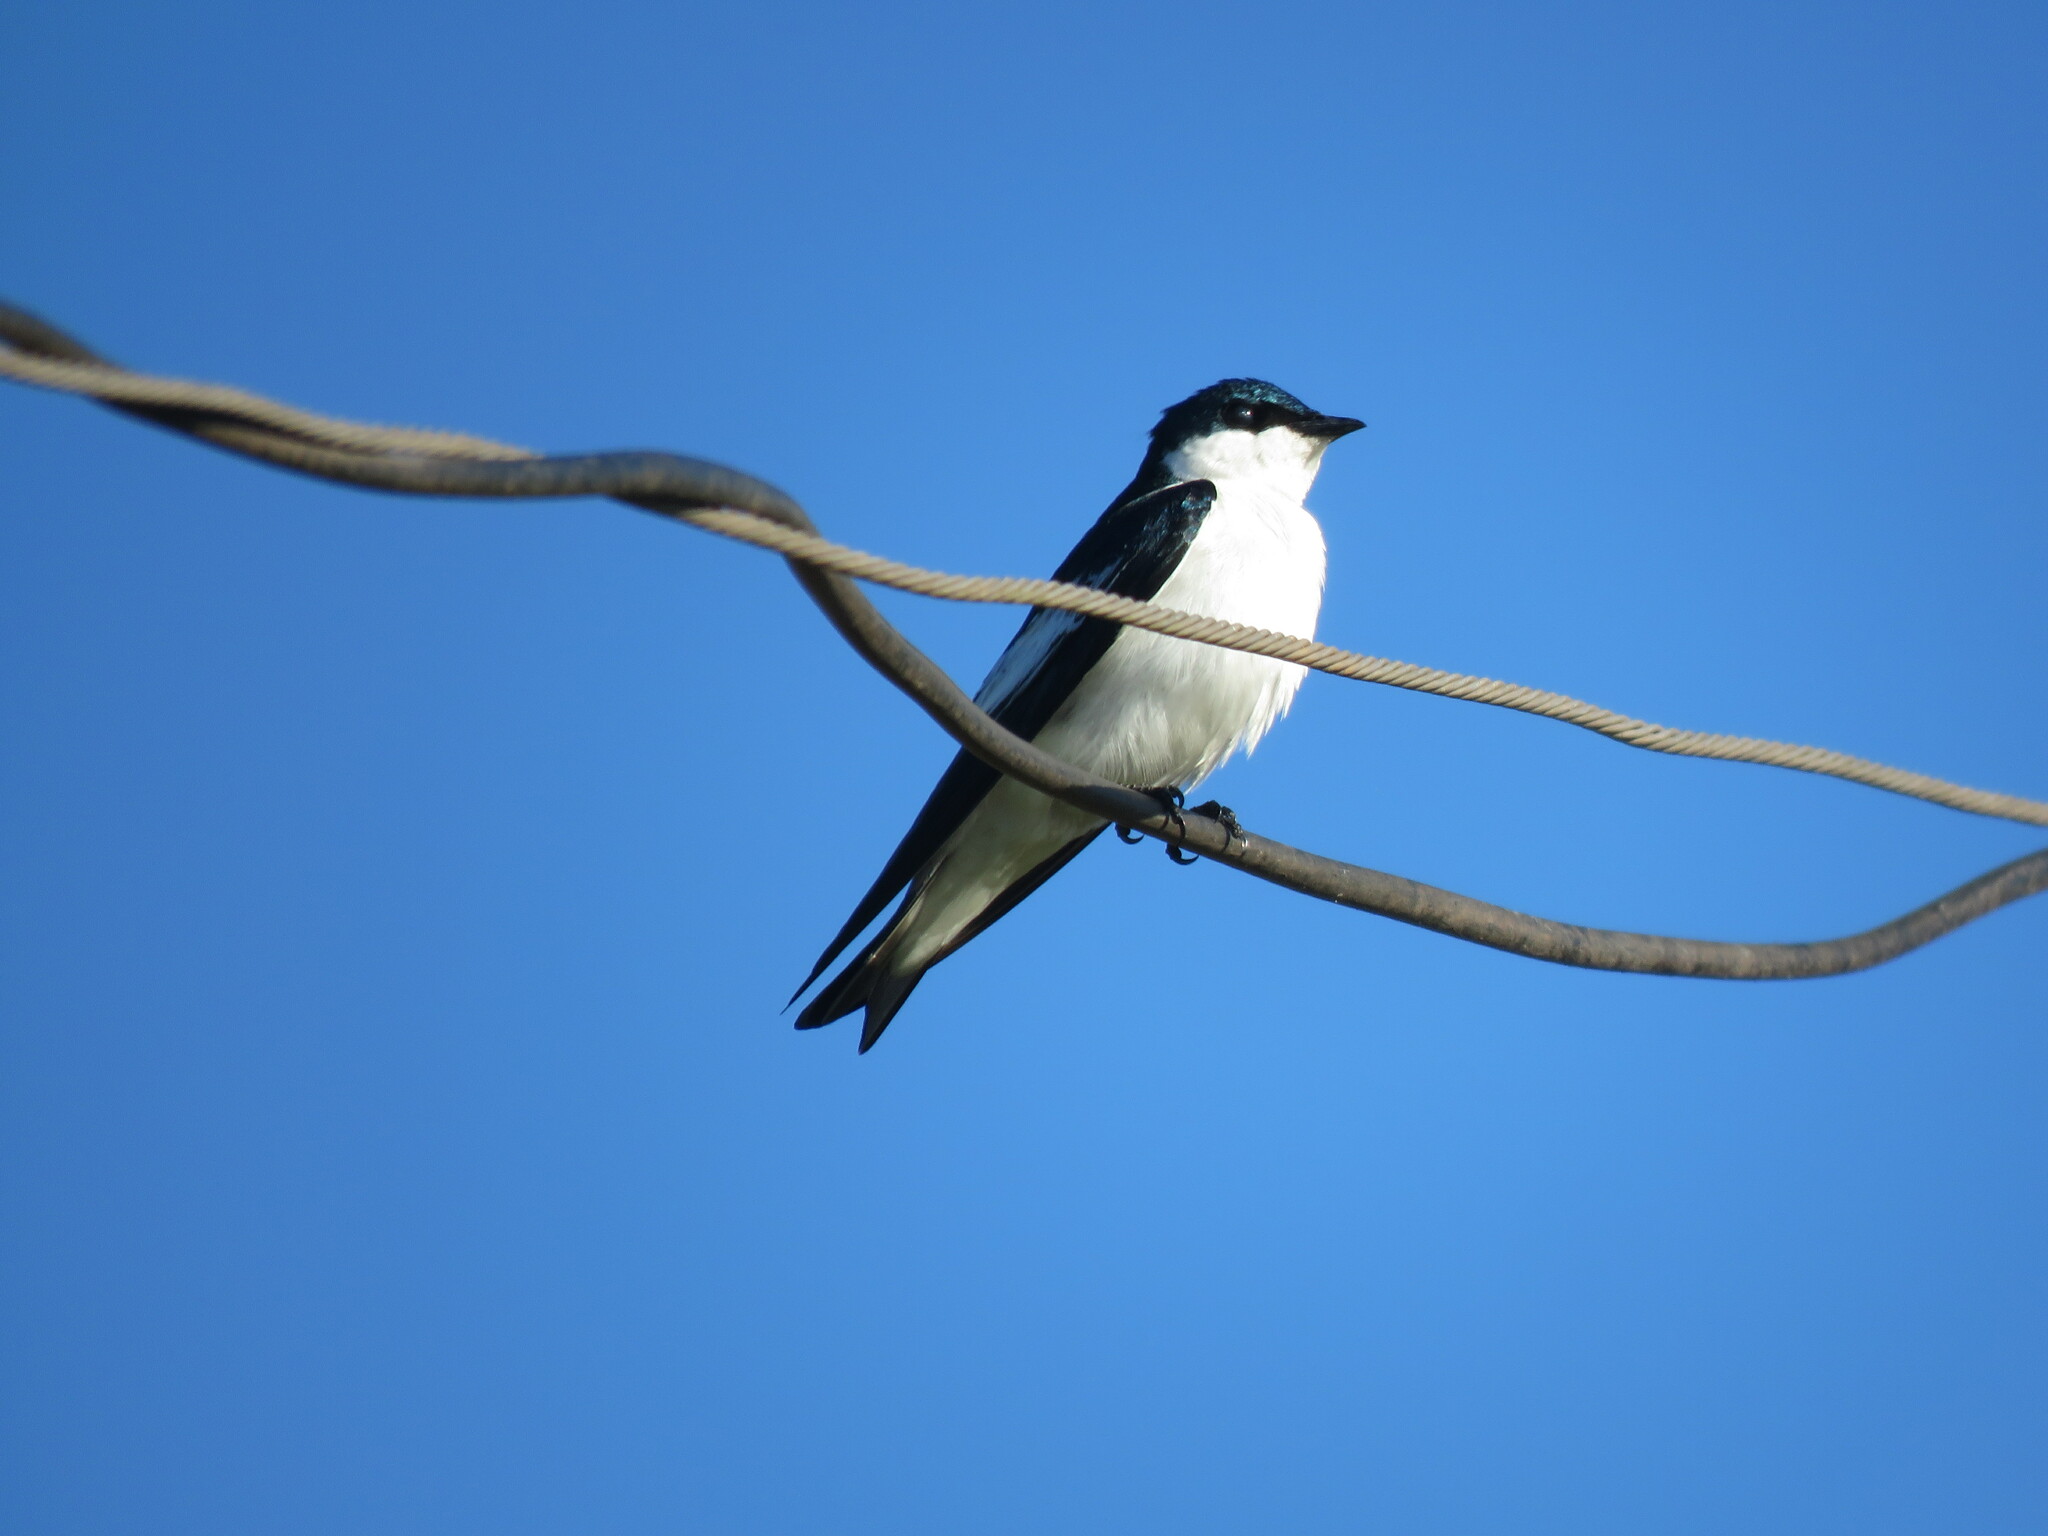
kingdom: Animalia
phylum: Chordata
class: Aves
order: Passeriformes
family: Hirundinidae
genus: Tachycineta
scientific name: Tachycineta albiventer
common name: White-winged swallow
